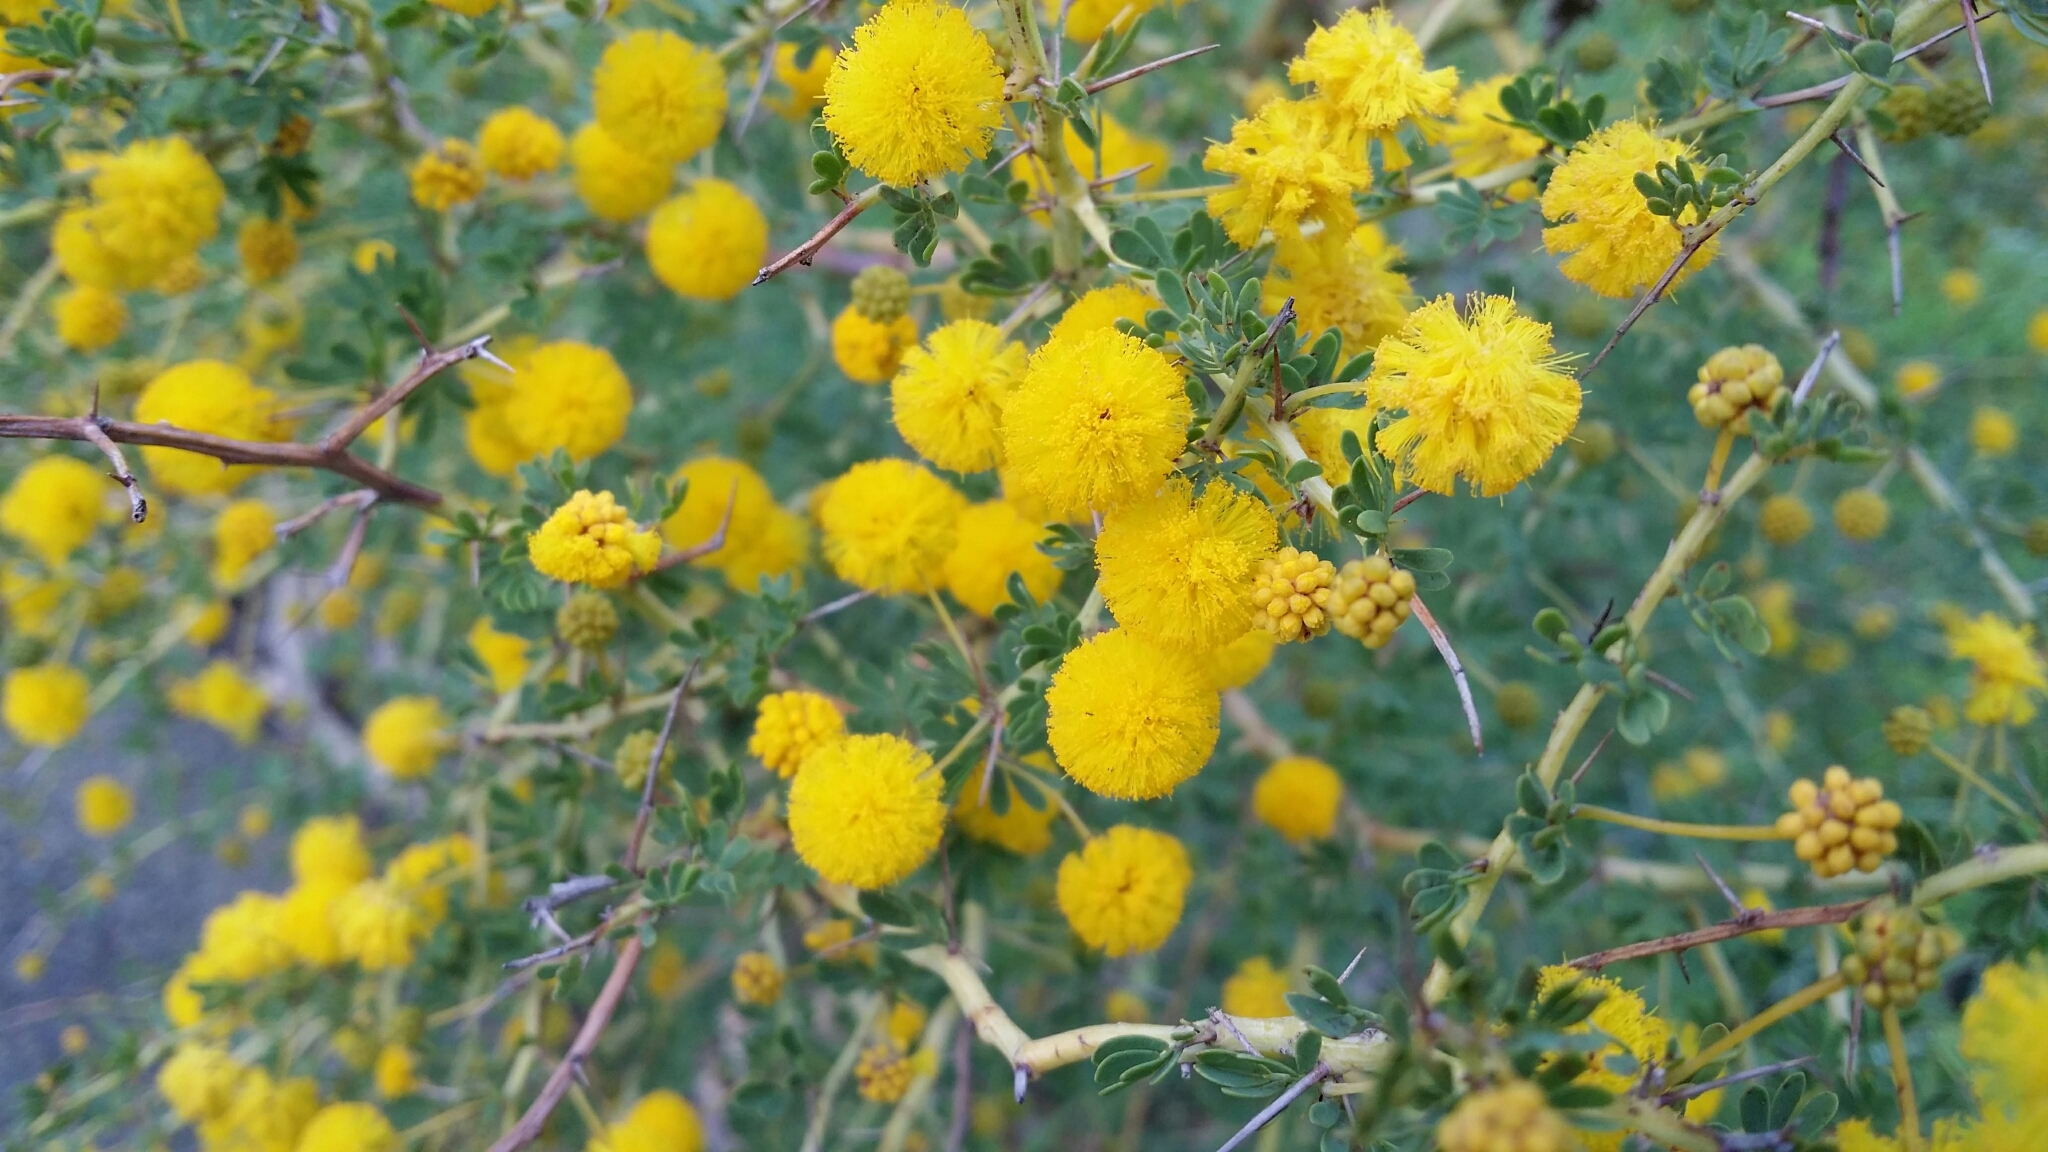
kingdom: Plantae
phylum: Tracheophyta
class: Magnoliopsida
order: Fabales
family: Fabaceae
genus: Acacia
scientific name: Acacia pulchella
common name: Prickly moses
